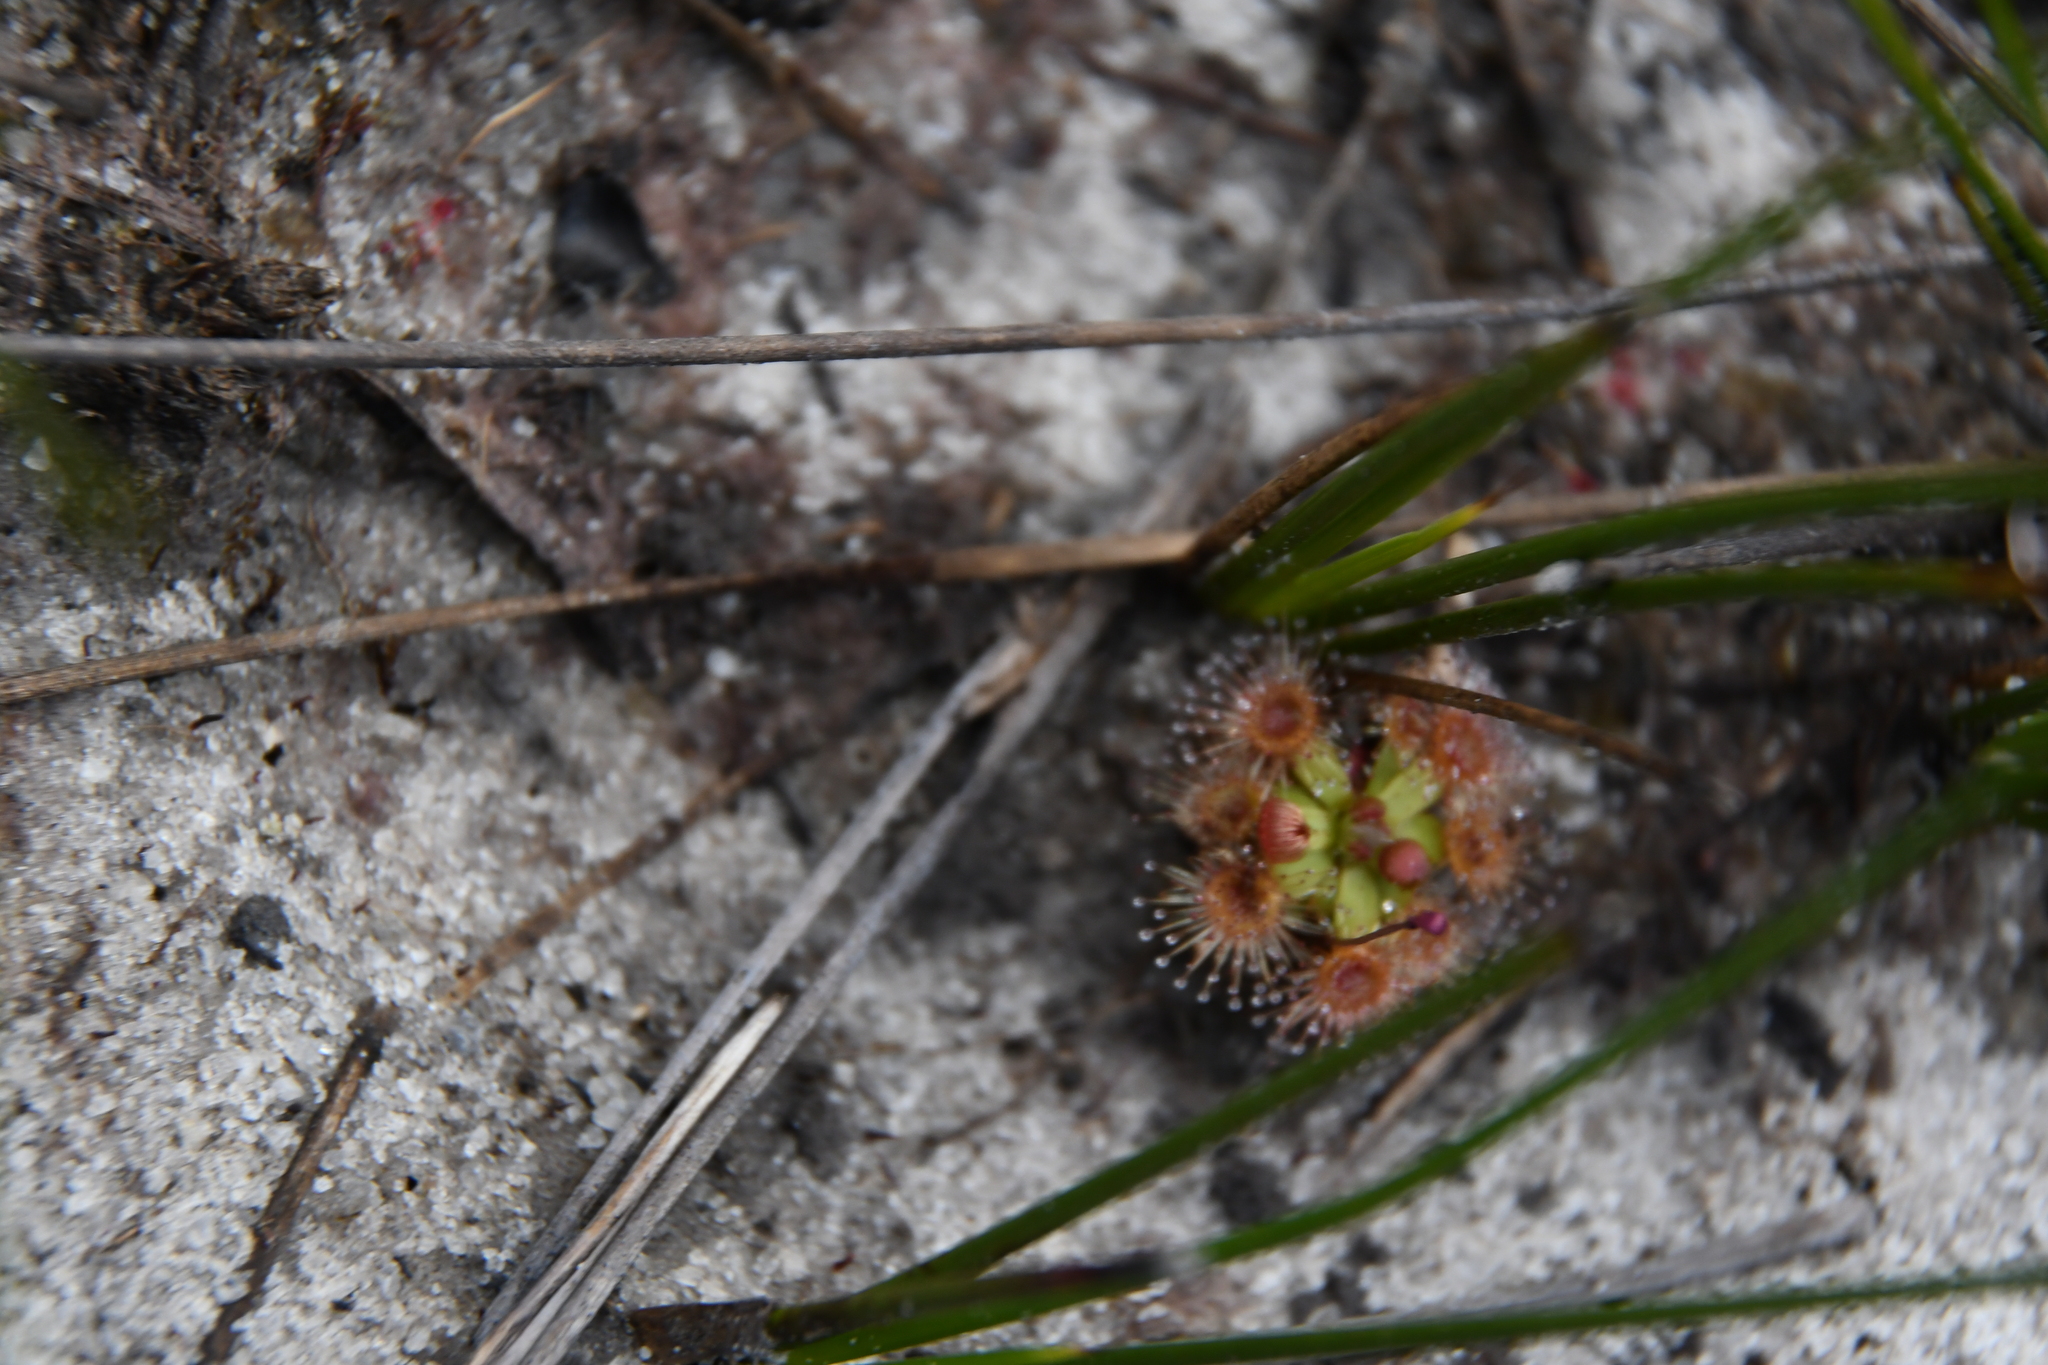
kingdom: Plantae
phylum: Tracheophyta
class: Magnoliopsida
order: Caryophyllales
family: Droseraceae
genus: Drosera
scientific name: Drosera pulchella
